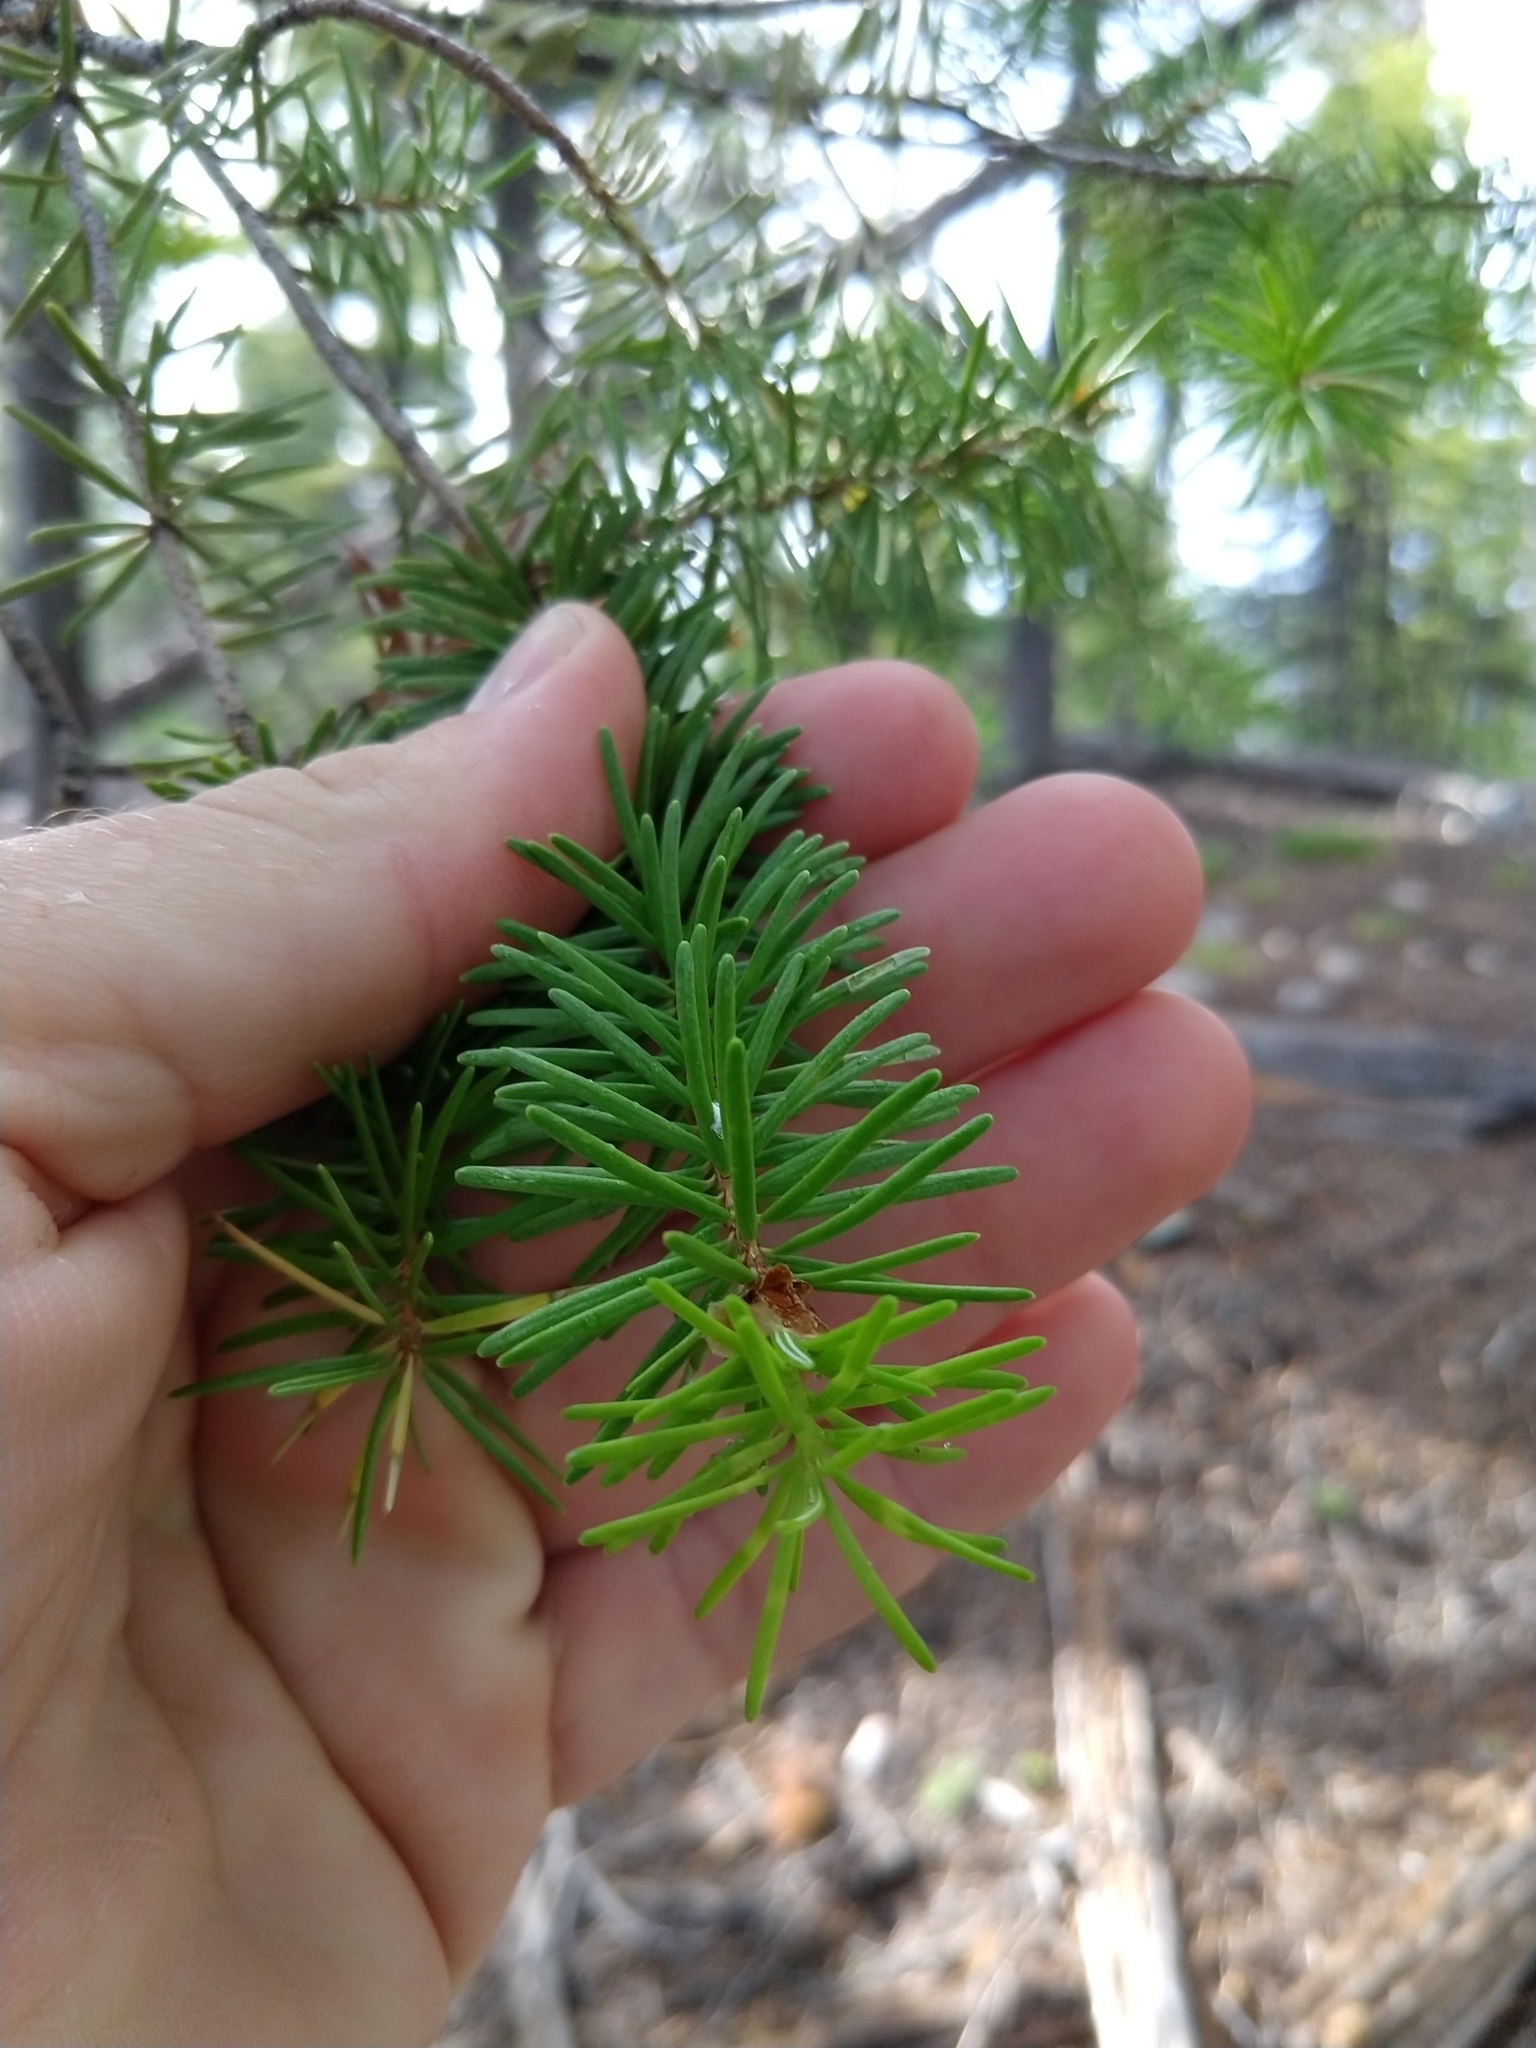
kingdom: Plantae
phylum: Tracheophyta
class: Pinopsida
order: Pinales
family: Pinaceae
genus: Pseudotsuga
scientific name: Pseudotsuga menziesii
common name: Douglas fir
